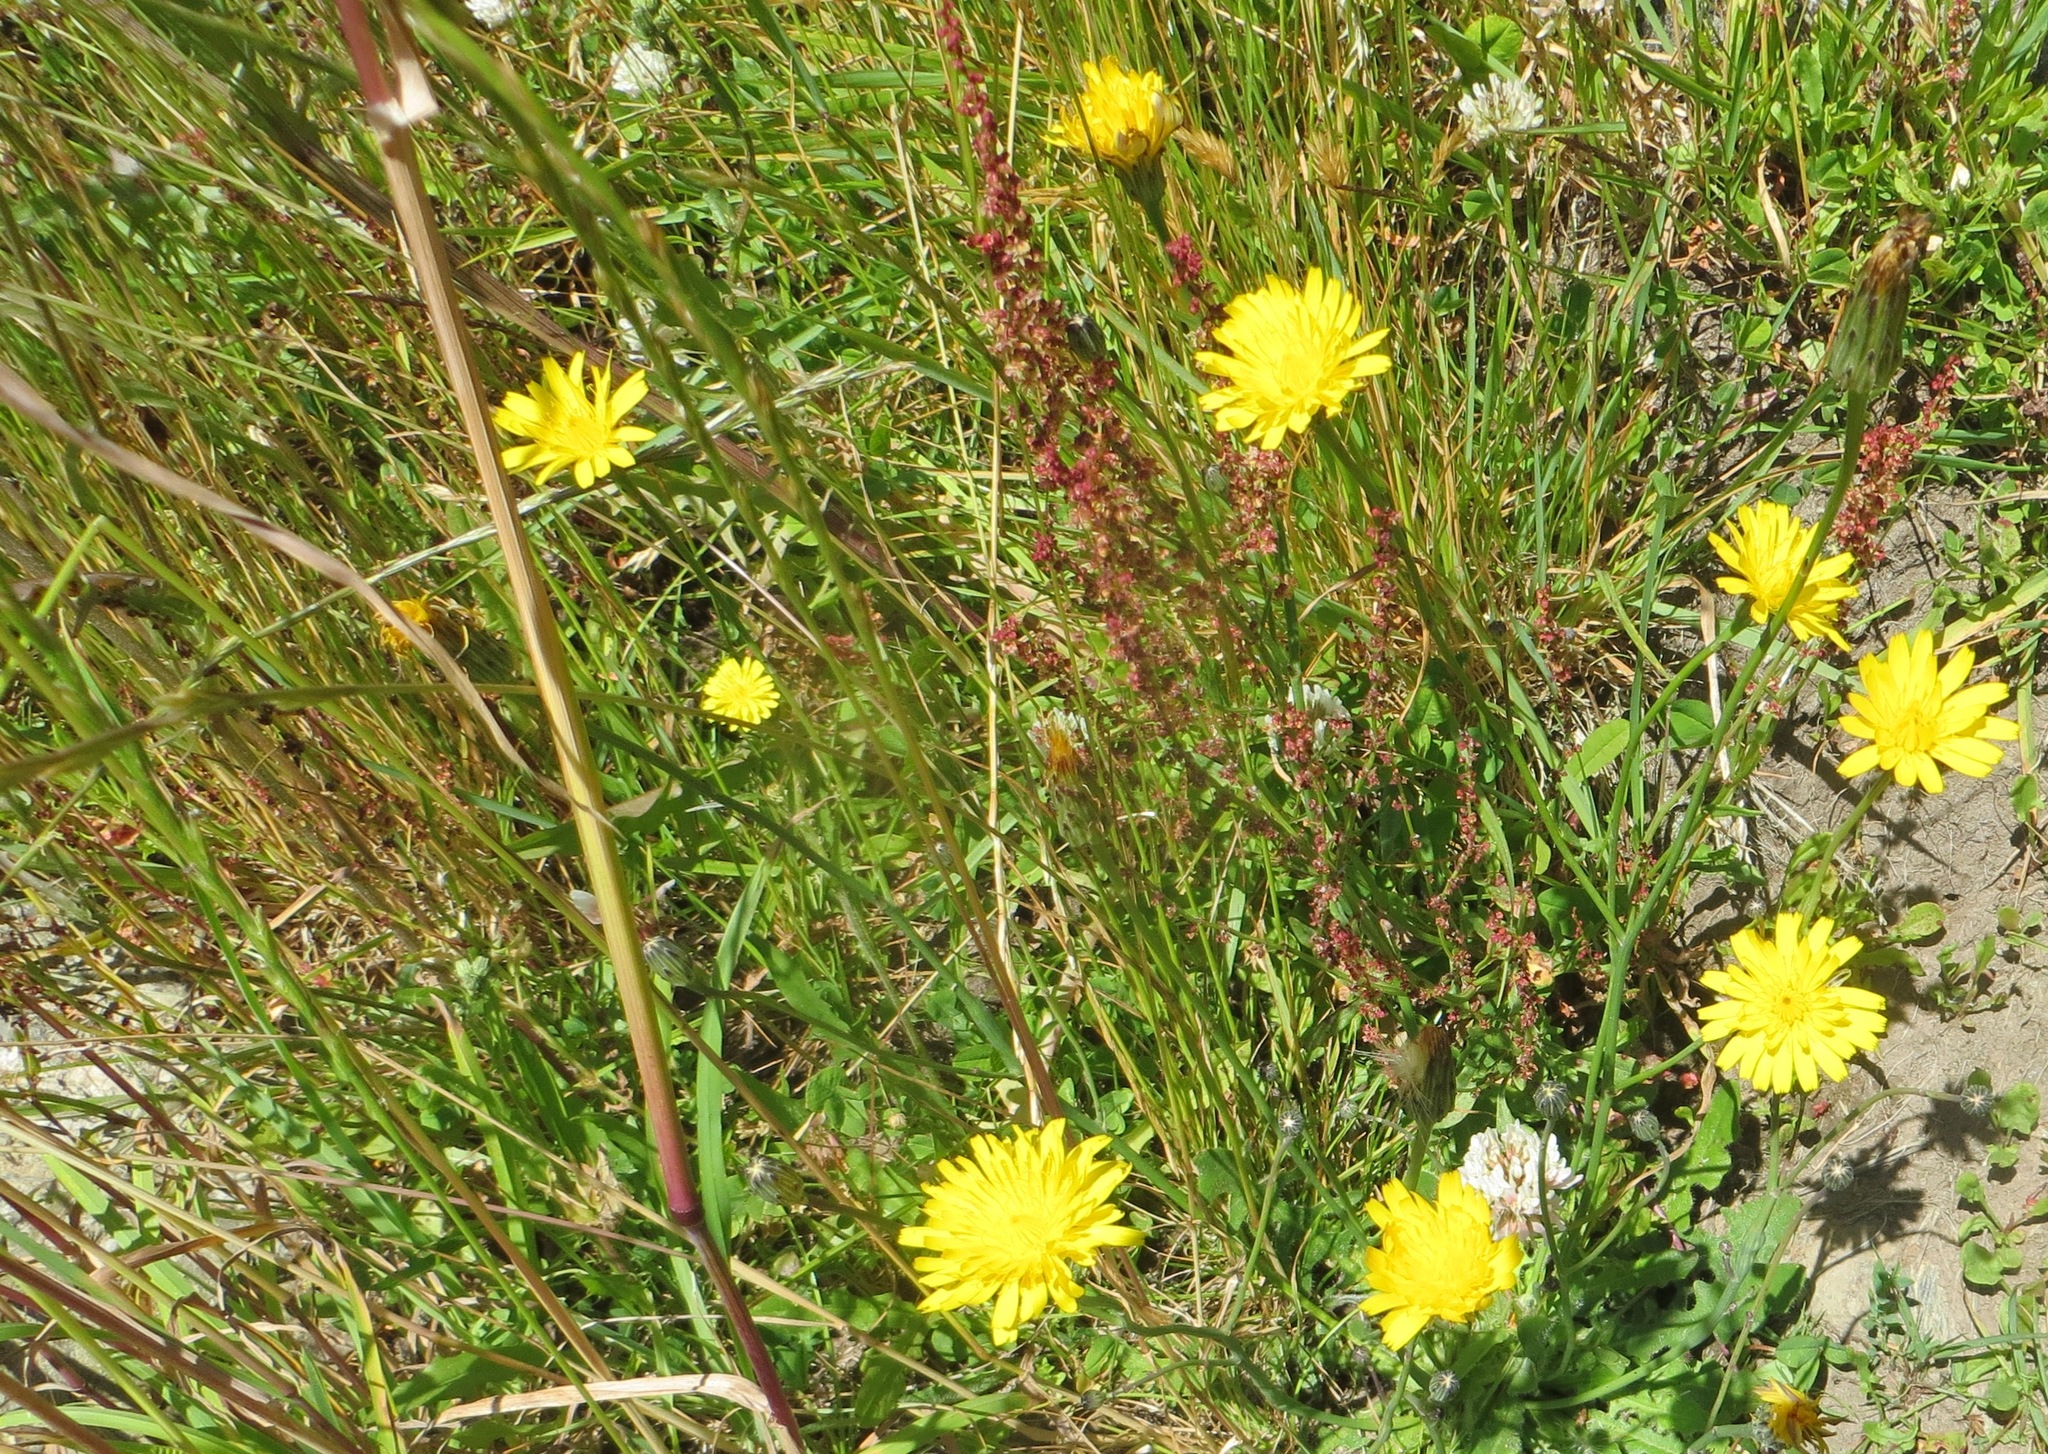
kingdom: Plantae
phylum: Tracheophyta
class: Magnoliopsida
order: Asterales
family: Asteraceae
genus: Hypochaeris
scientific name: Hypochaeris radicata
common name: Flatweed
